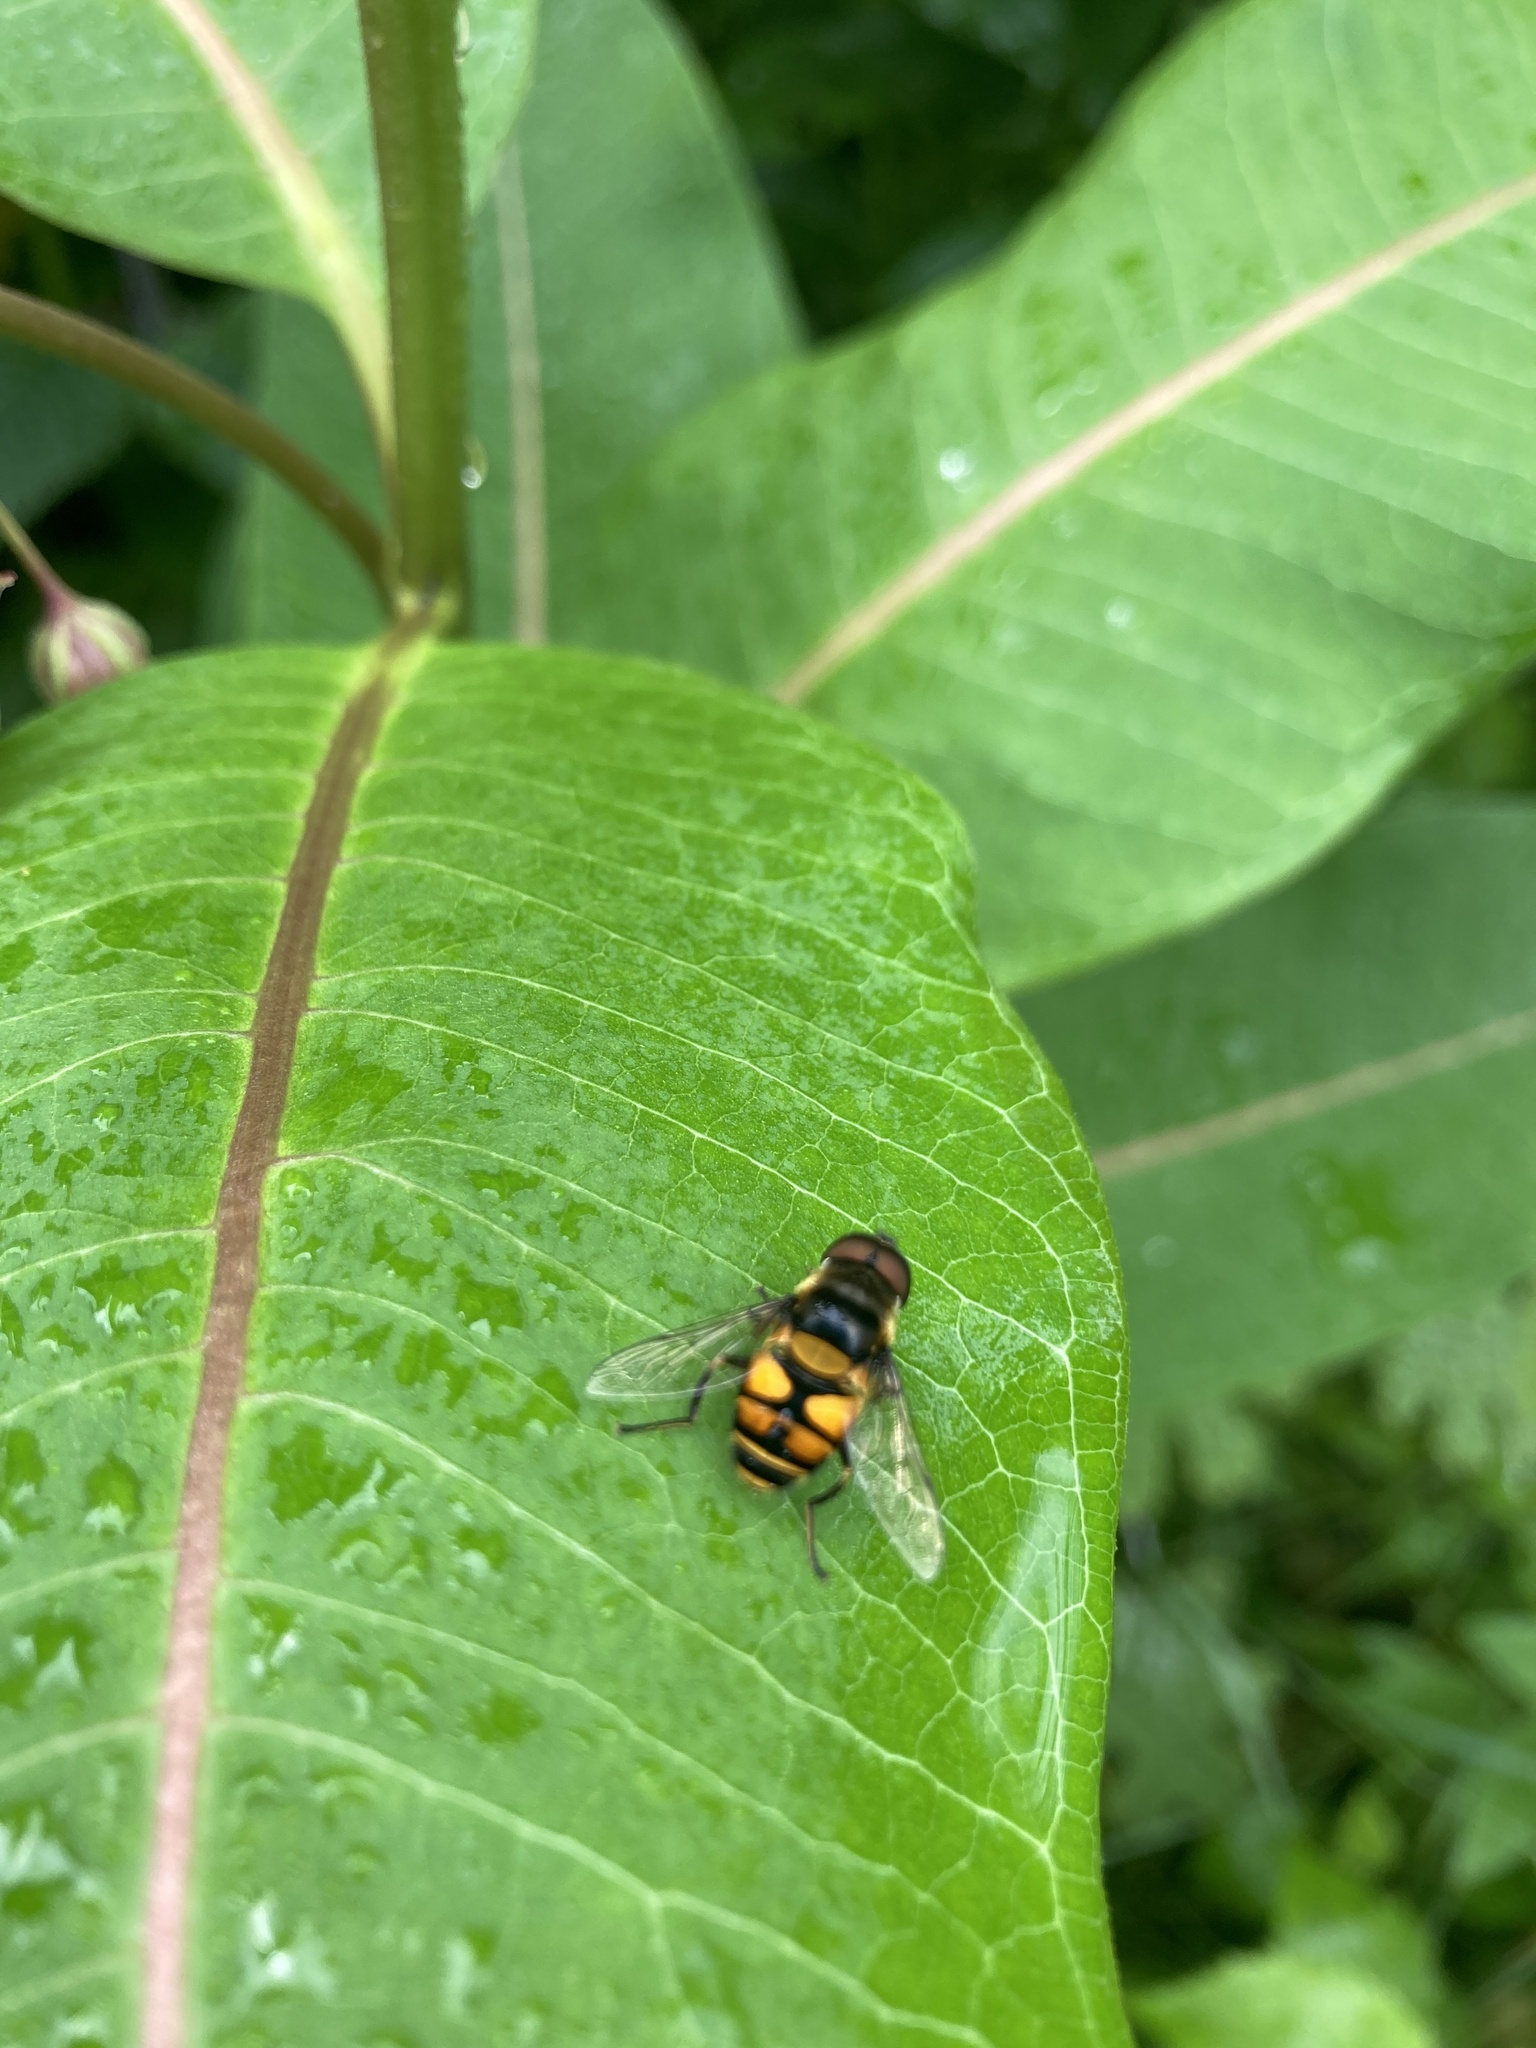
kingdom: Animalia
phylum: Arthropoda
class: Insecta
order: Diptera
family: Syrphidae
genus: Eristalis
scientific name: Eristalis transversa
